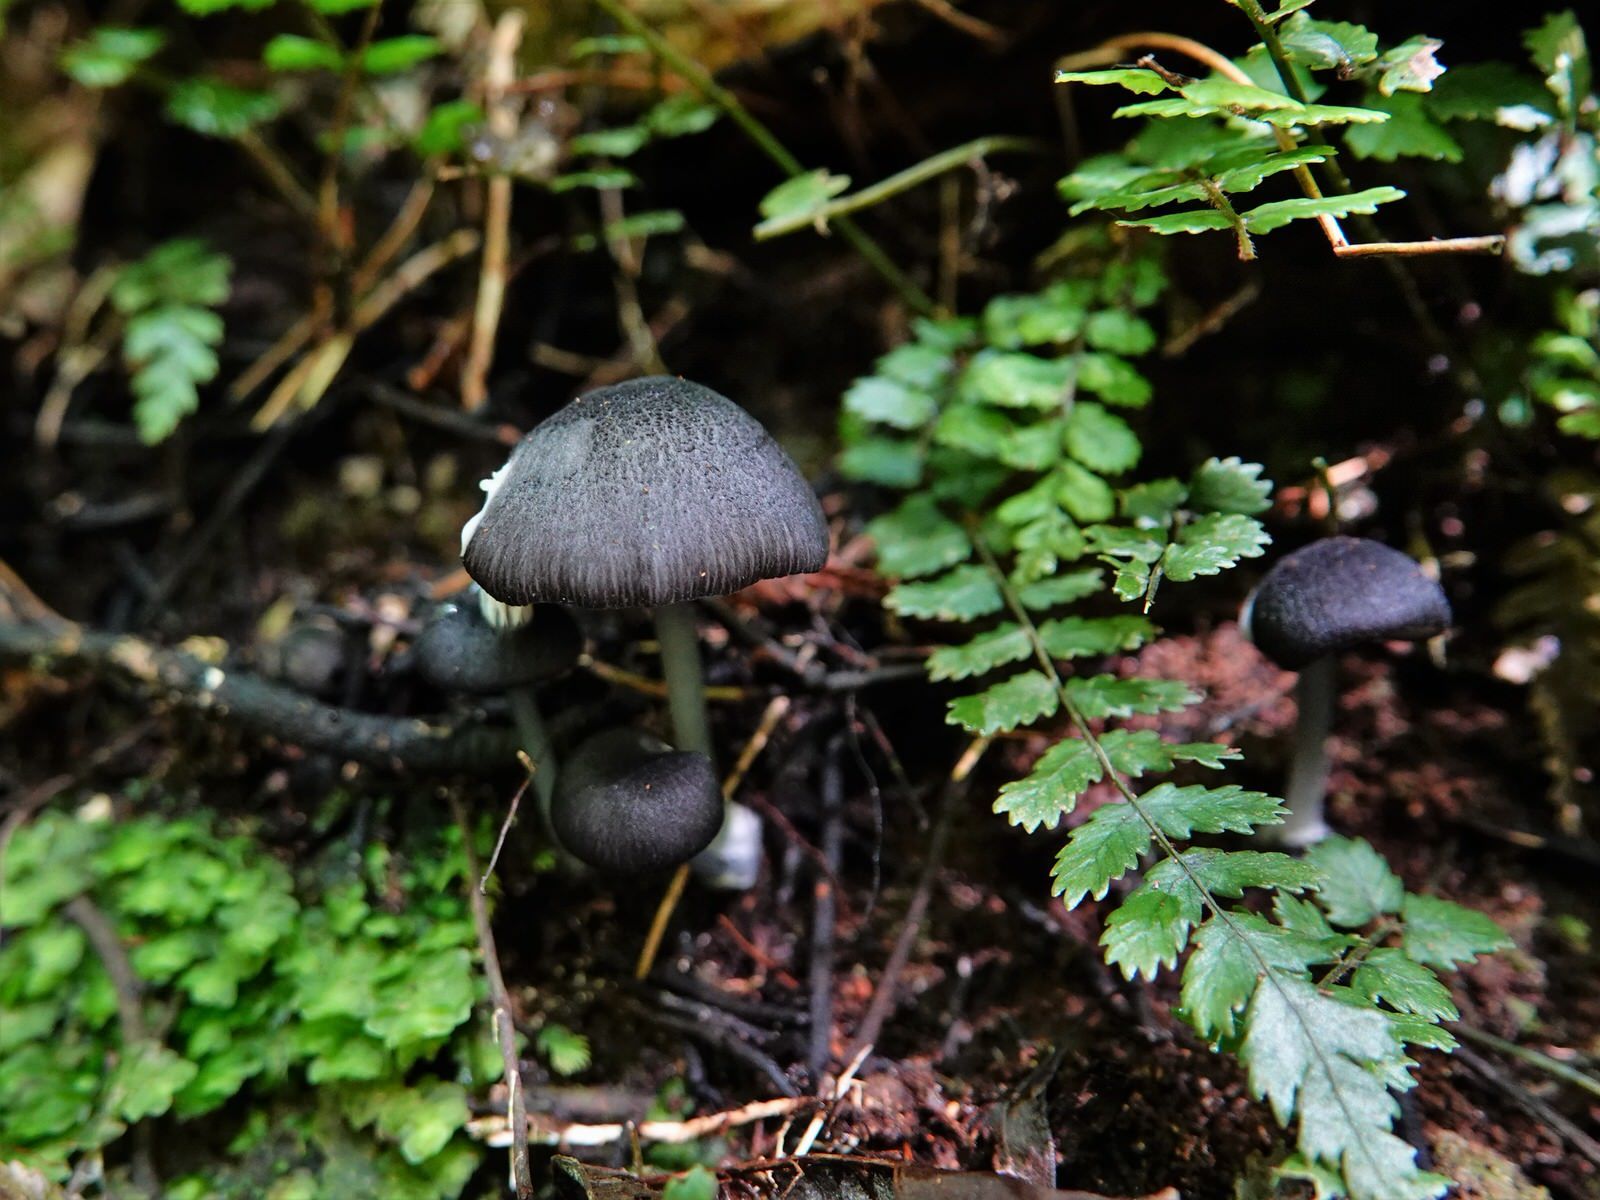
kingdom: Fungi
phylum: Basidiomycota
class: Agaricomycetes
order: Agaricales
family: Entolomataceae
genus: Entoloma
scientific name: Entoloma melanocephalum
